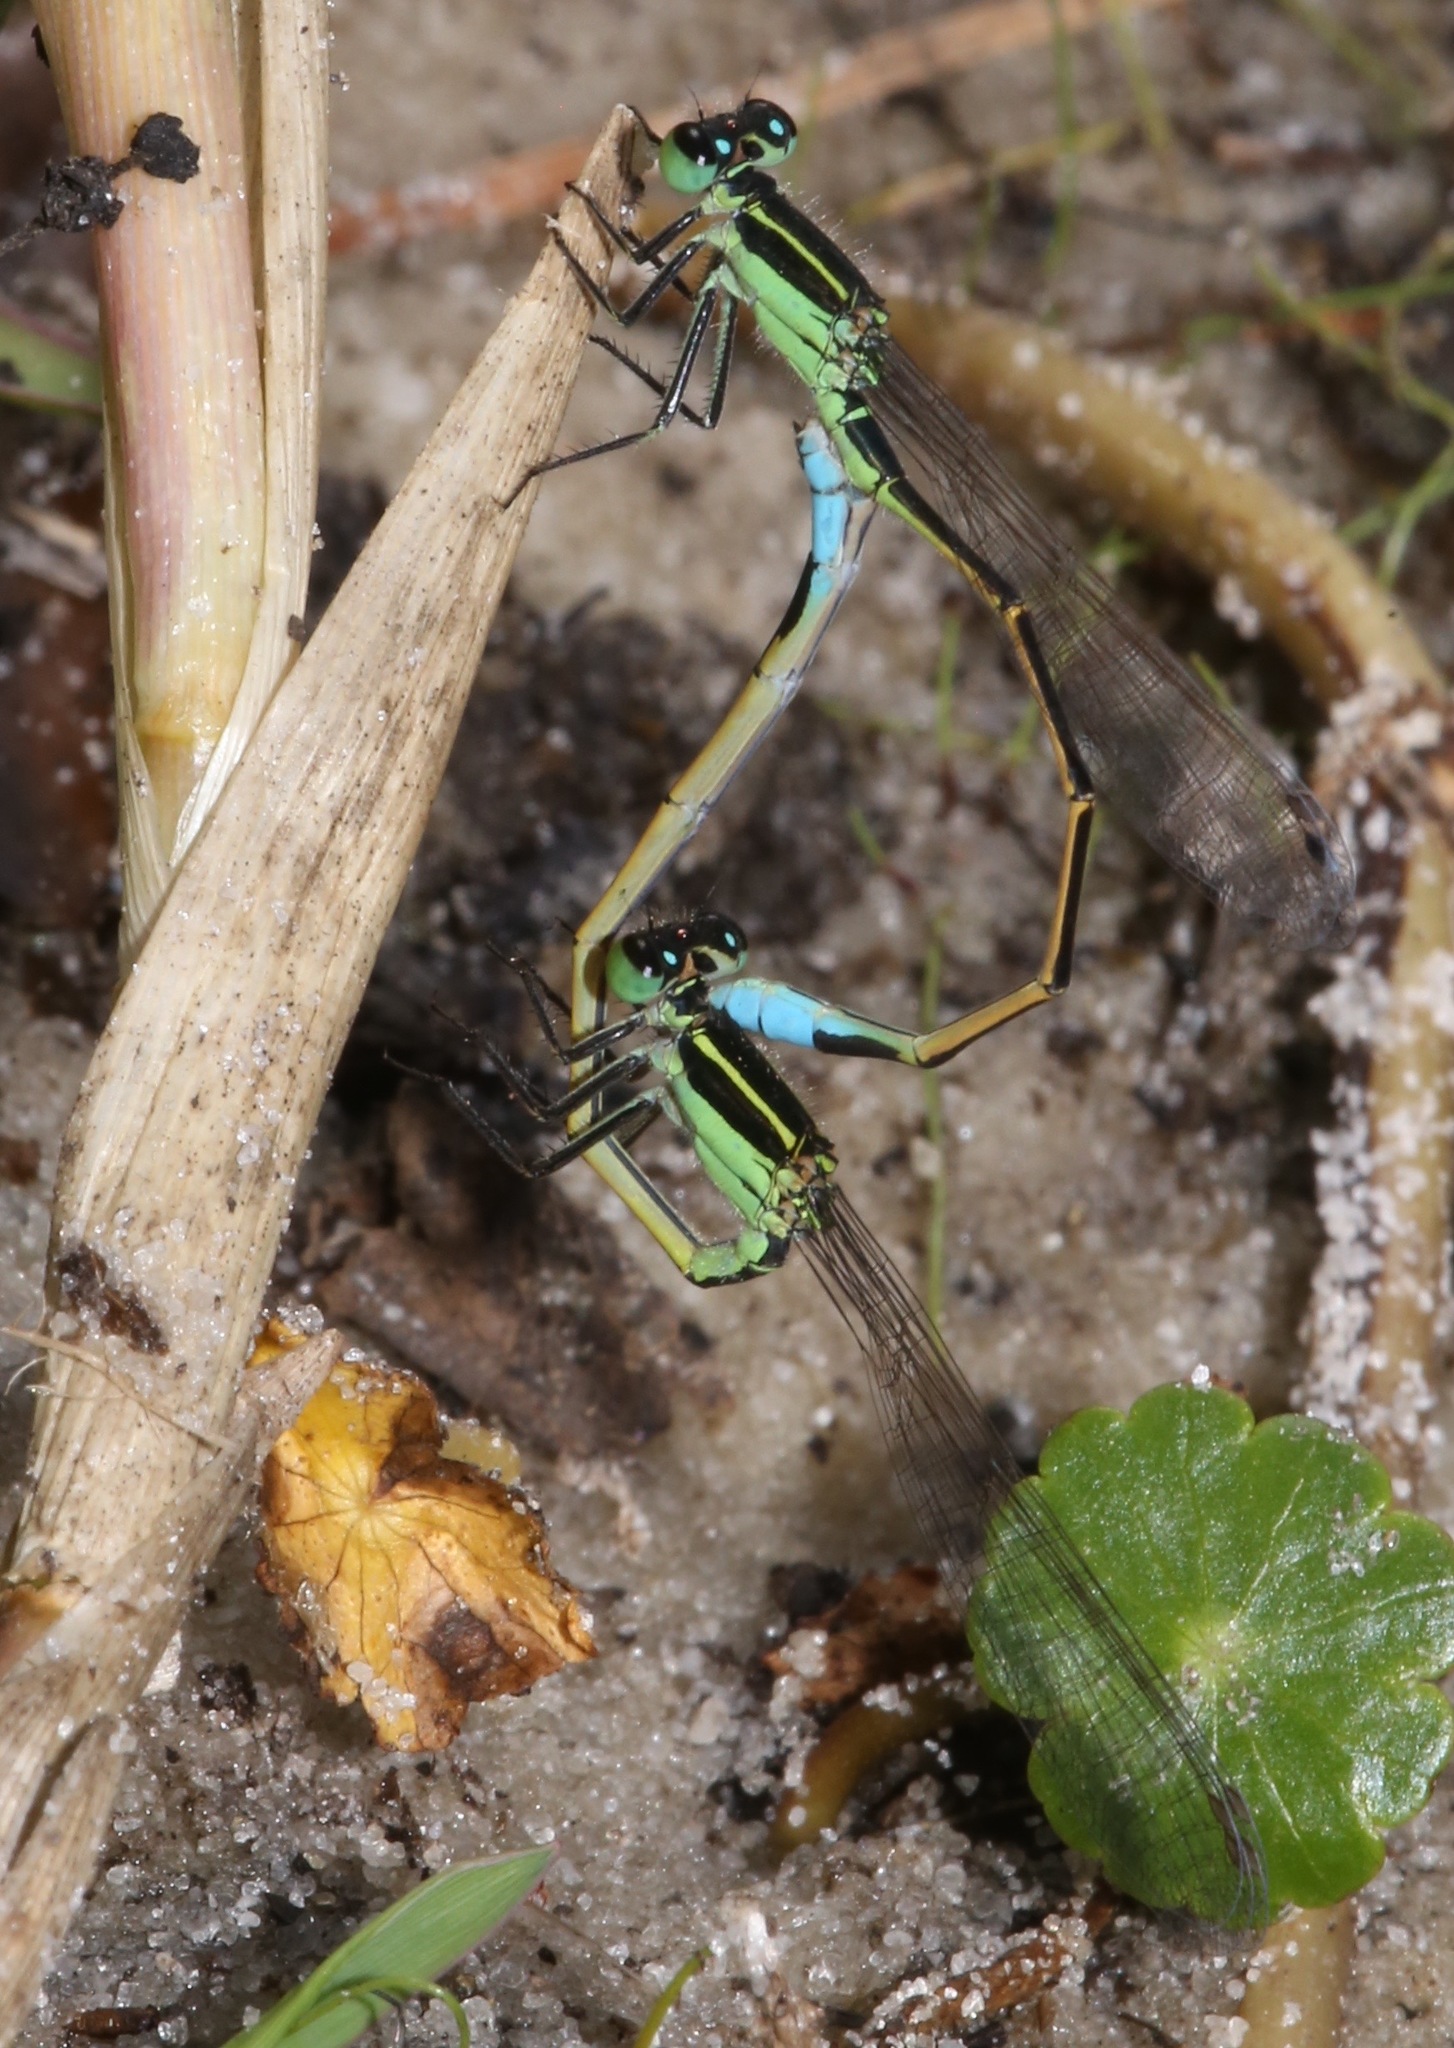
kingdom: Animalia
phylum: Arthropoda
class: Insecta
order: Odonata
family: Coenagrionidae
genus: Ischnura
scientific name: Ischnura ramburii
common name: Rambur's forktail
